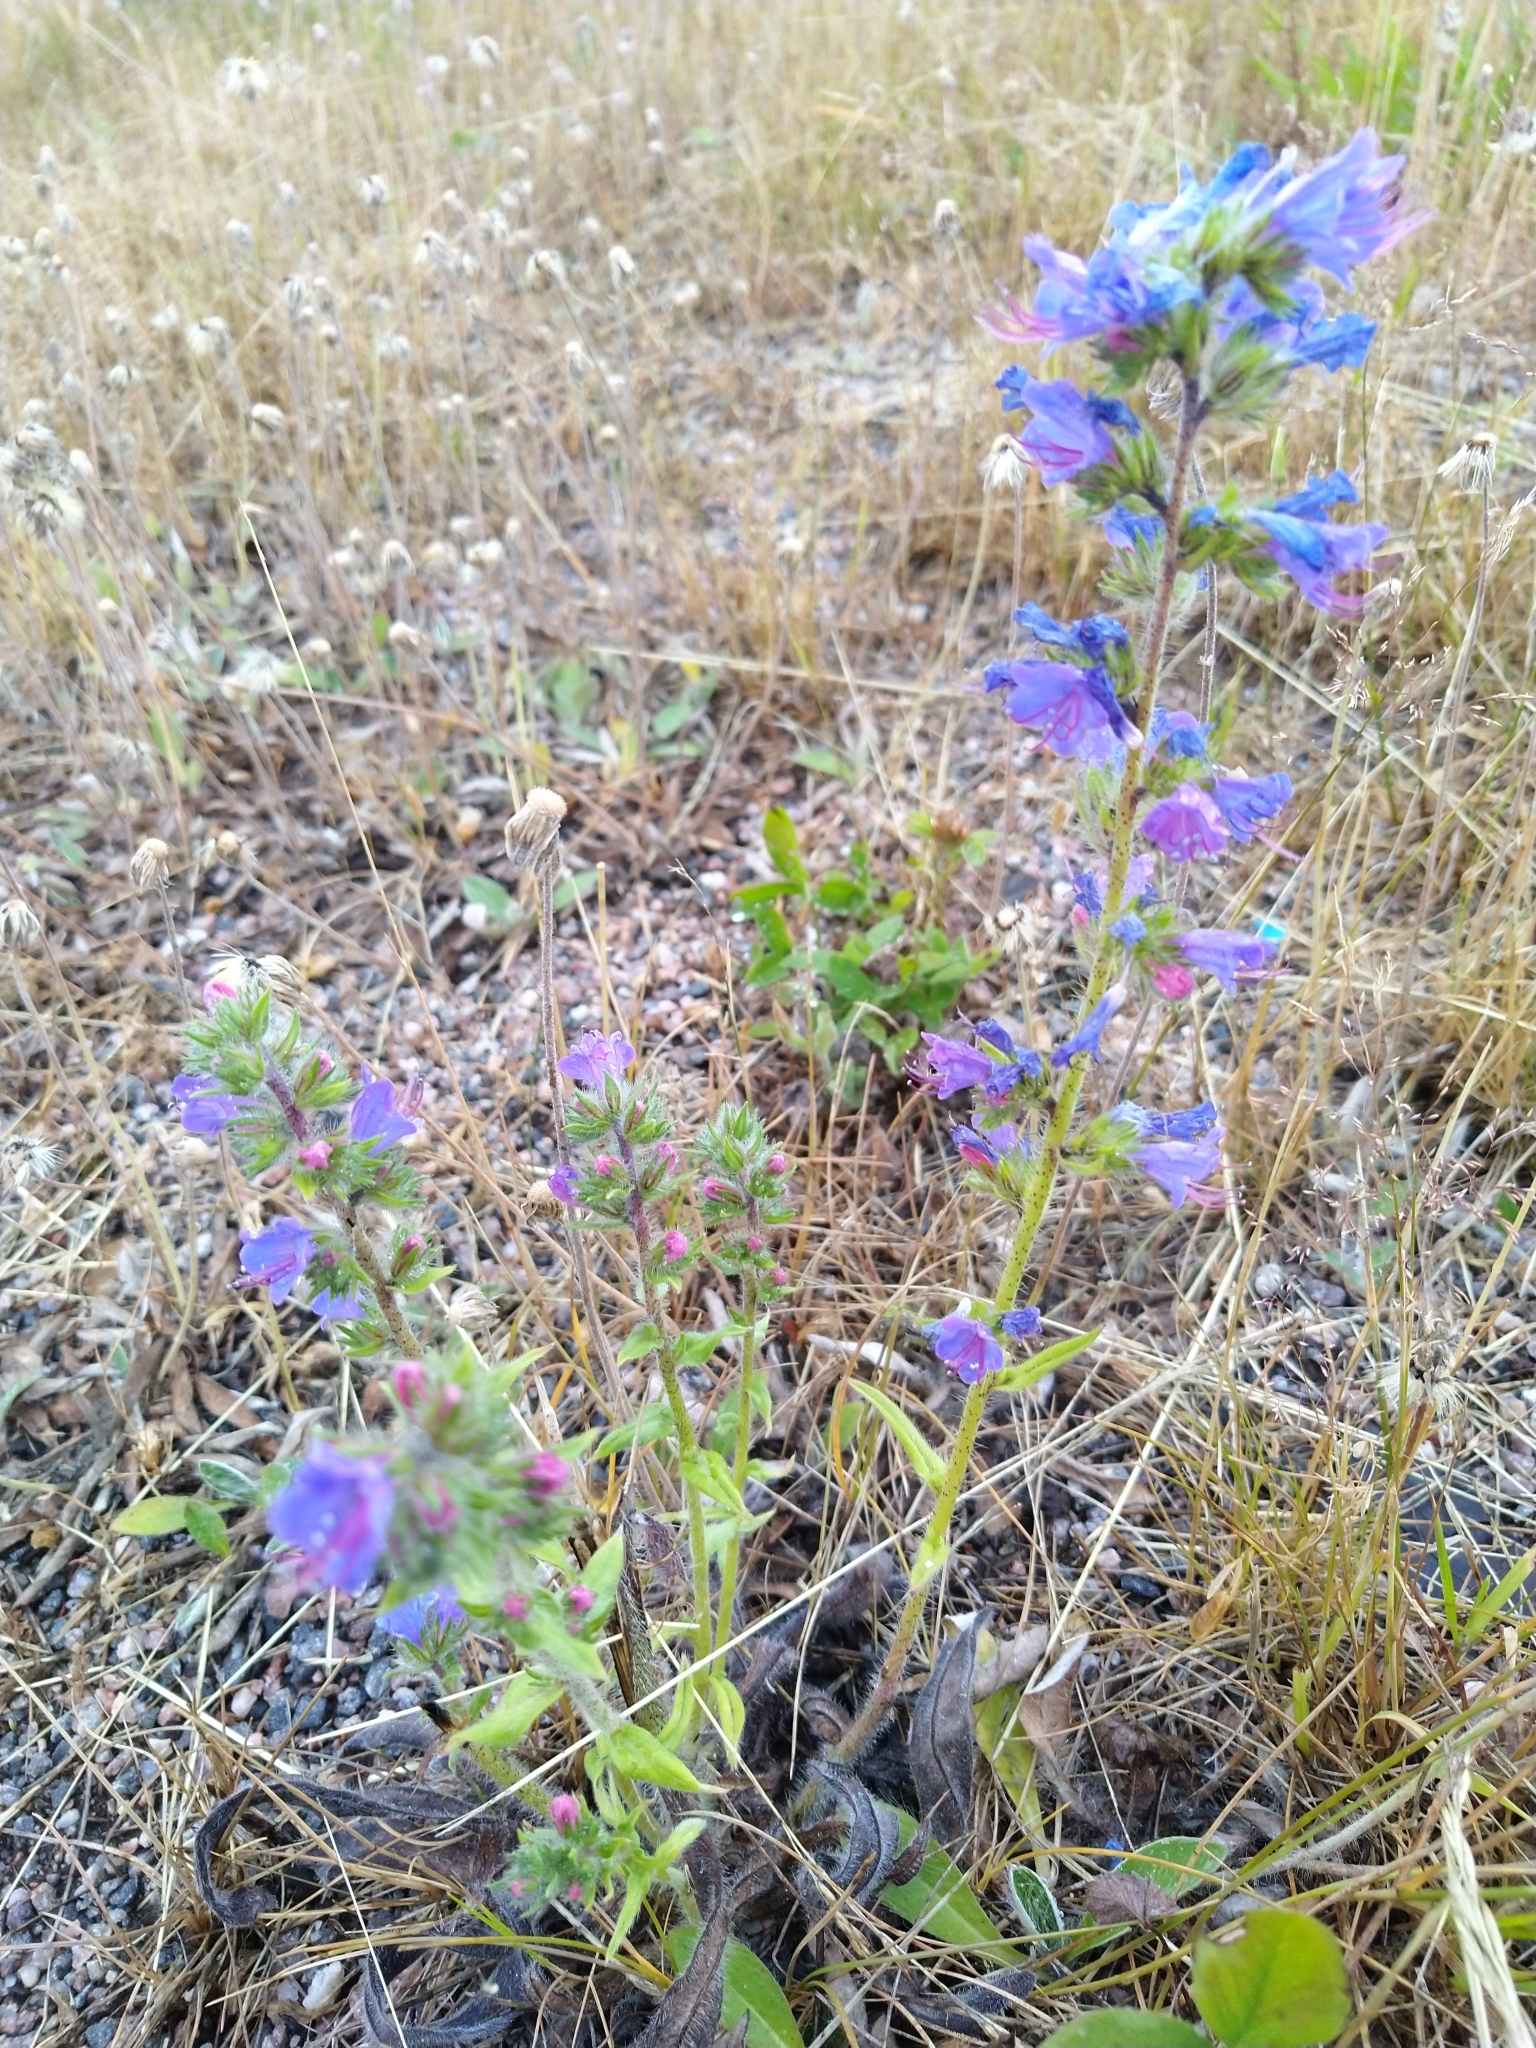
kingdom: Plantae
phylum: Tracheophyta
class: Magnoliopsida
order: Boraginales
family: Boraginaceae
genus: Echium
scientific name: Echium vulgare
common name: Common viper's bugloss
